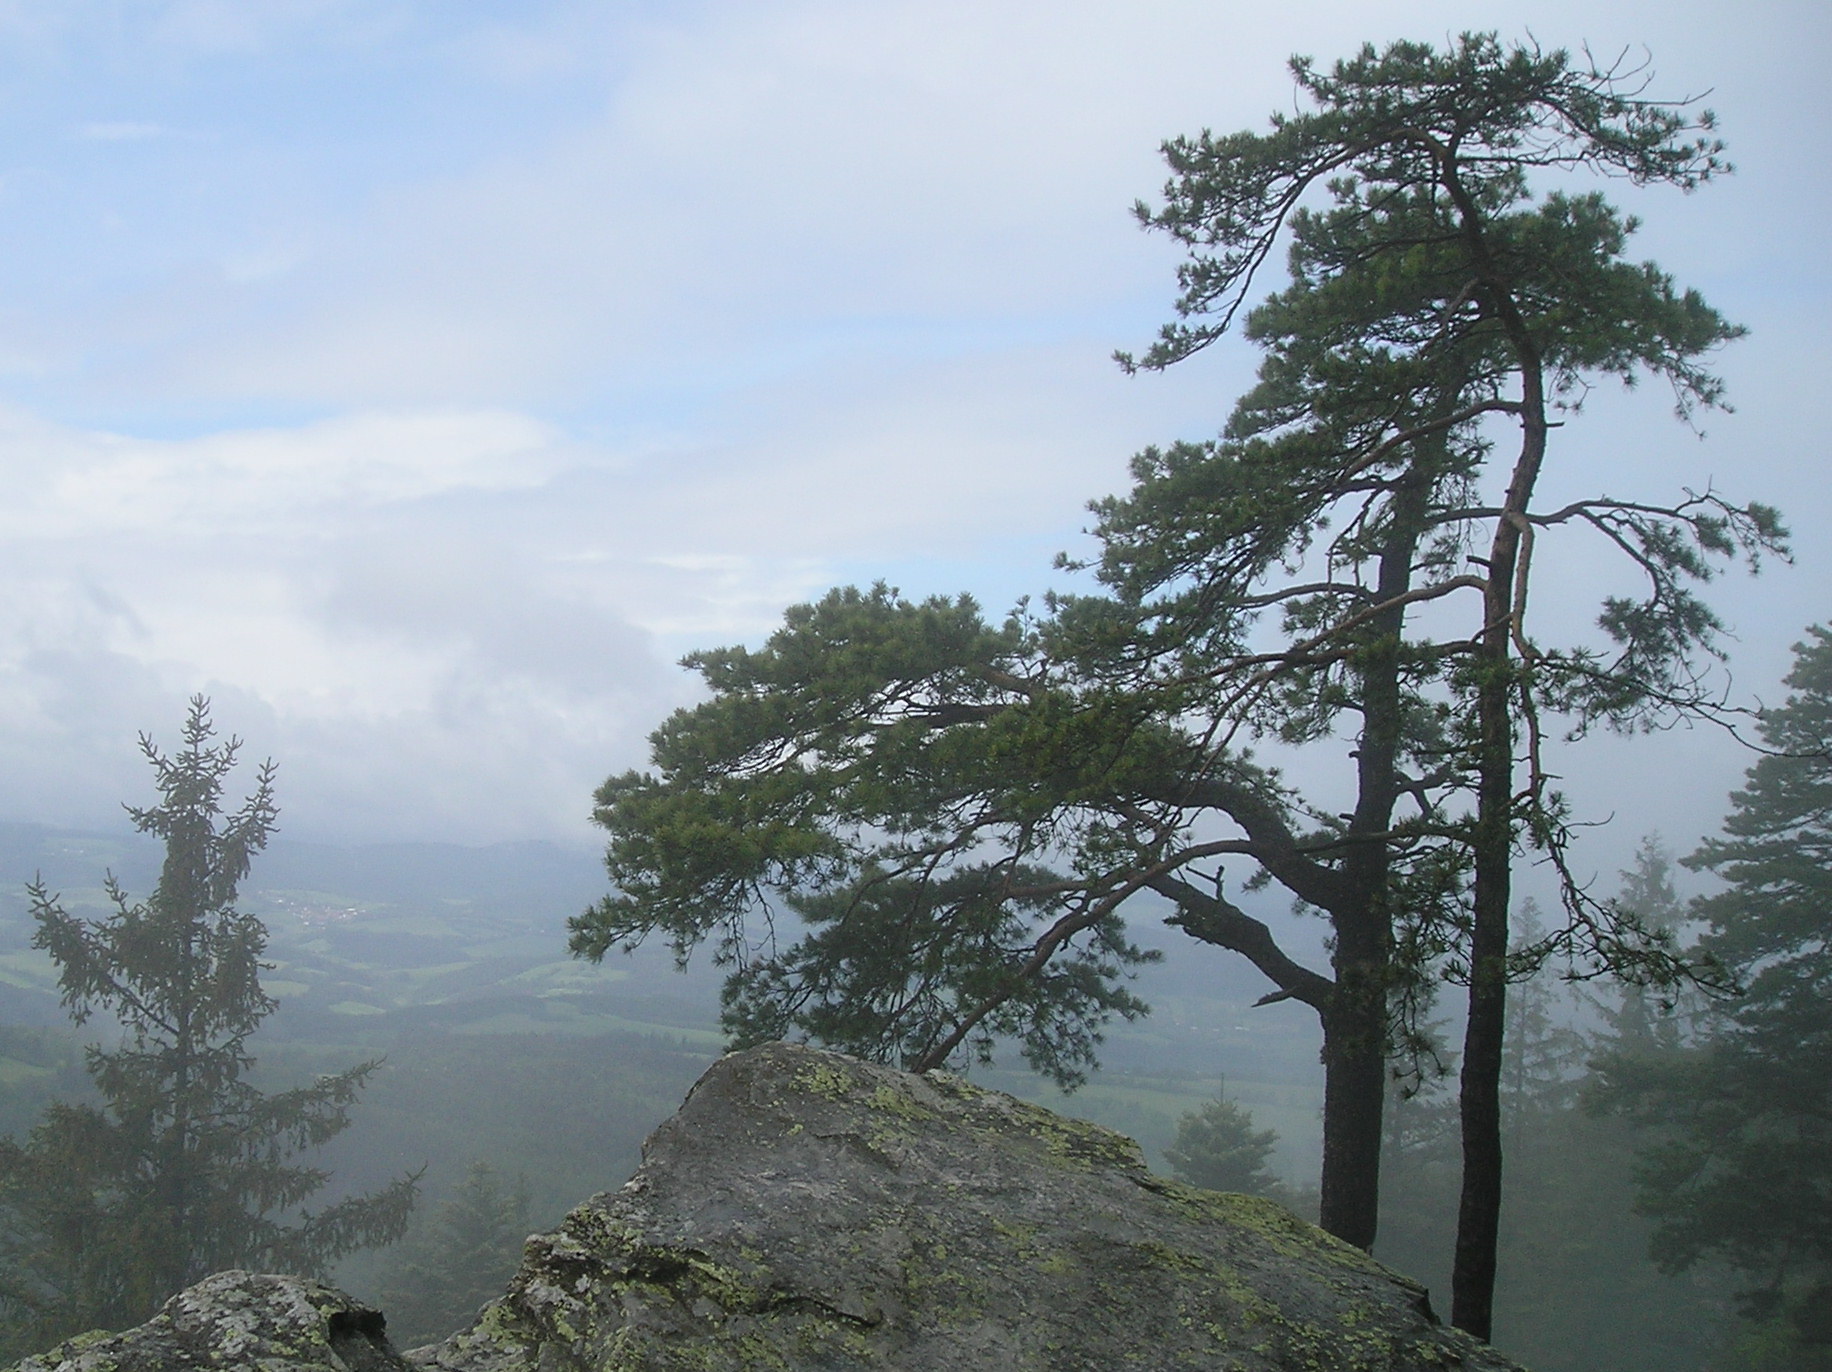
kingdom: Plantae
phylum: Tracheophyta
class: Pinopsida
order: Pinales
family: Pinaceae
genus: Pinus
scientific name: Pinus sylvestris
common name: Scots pine
